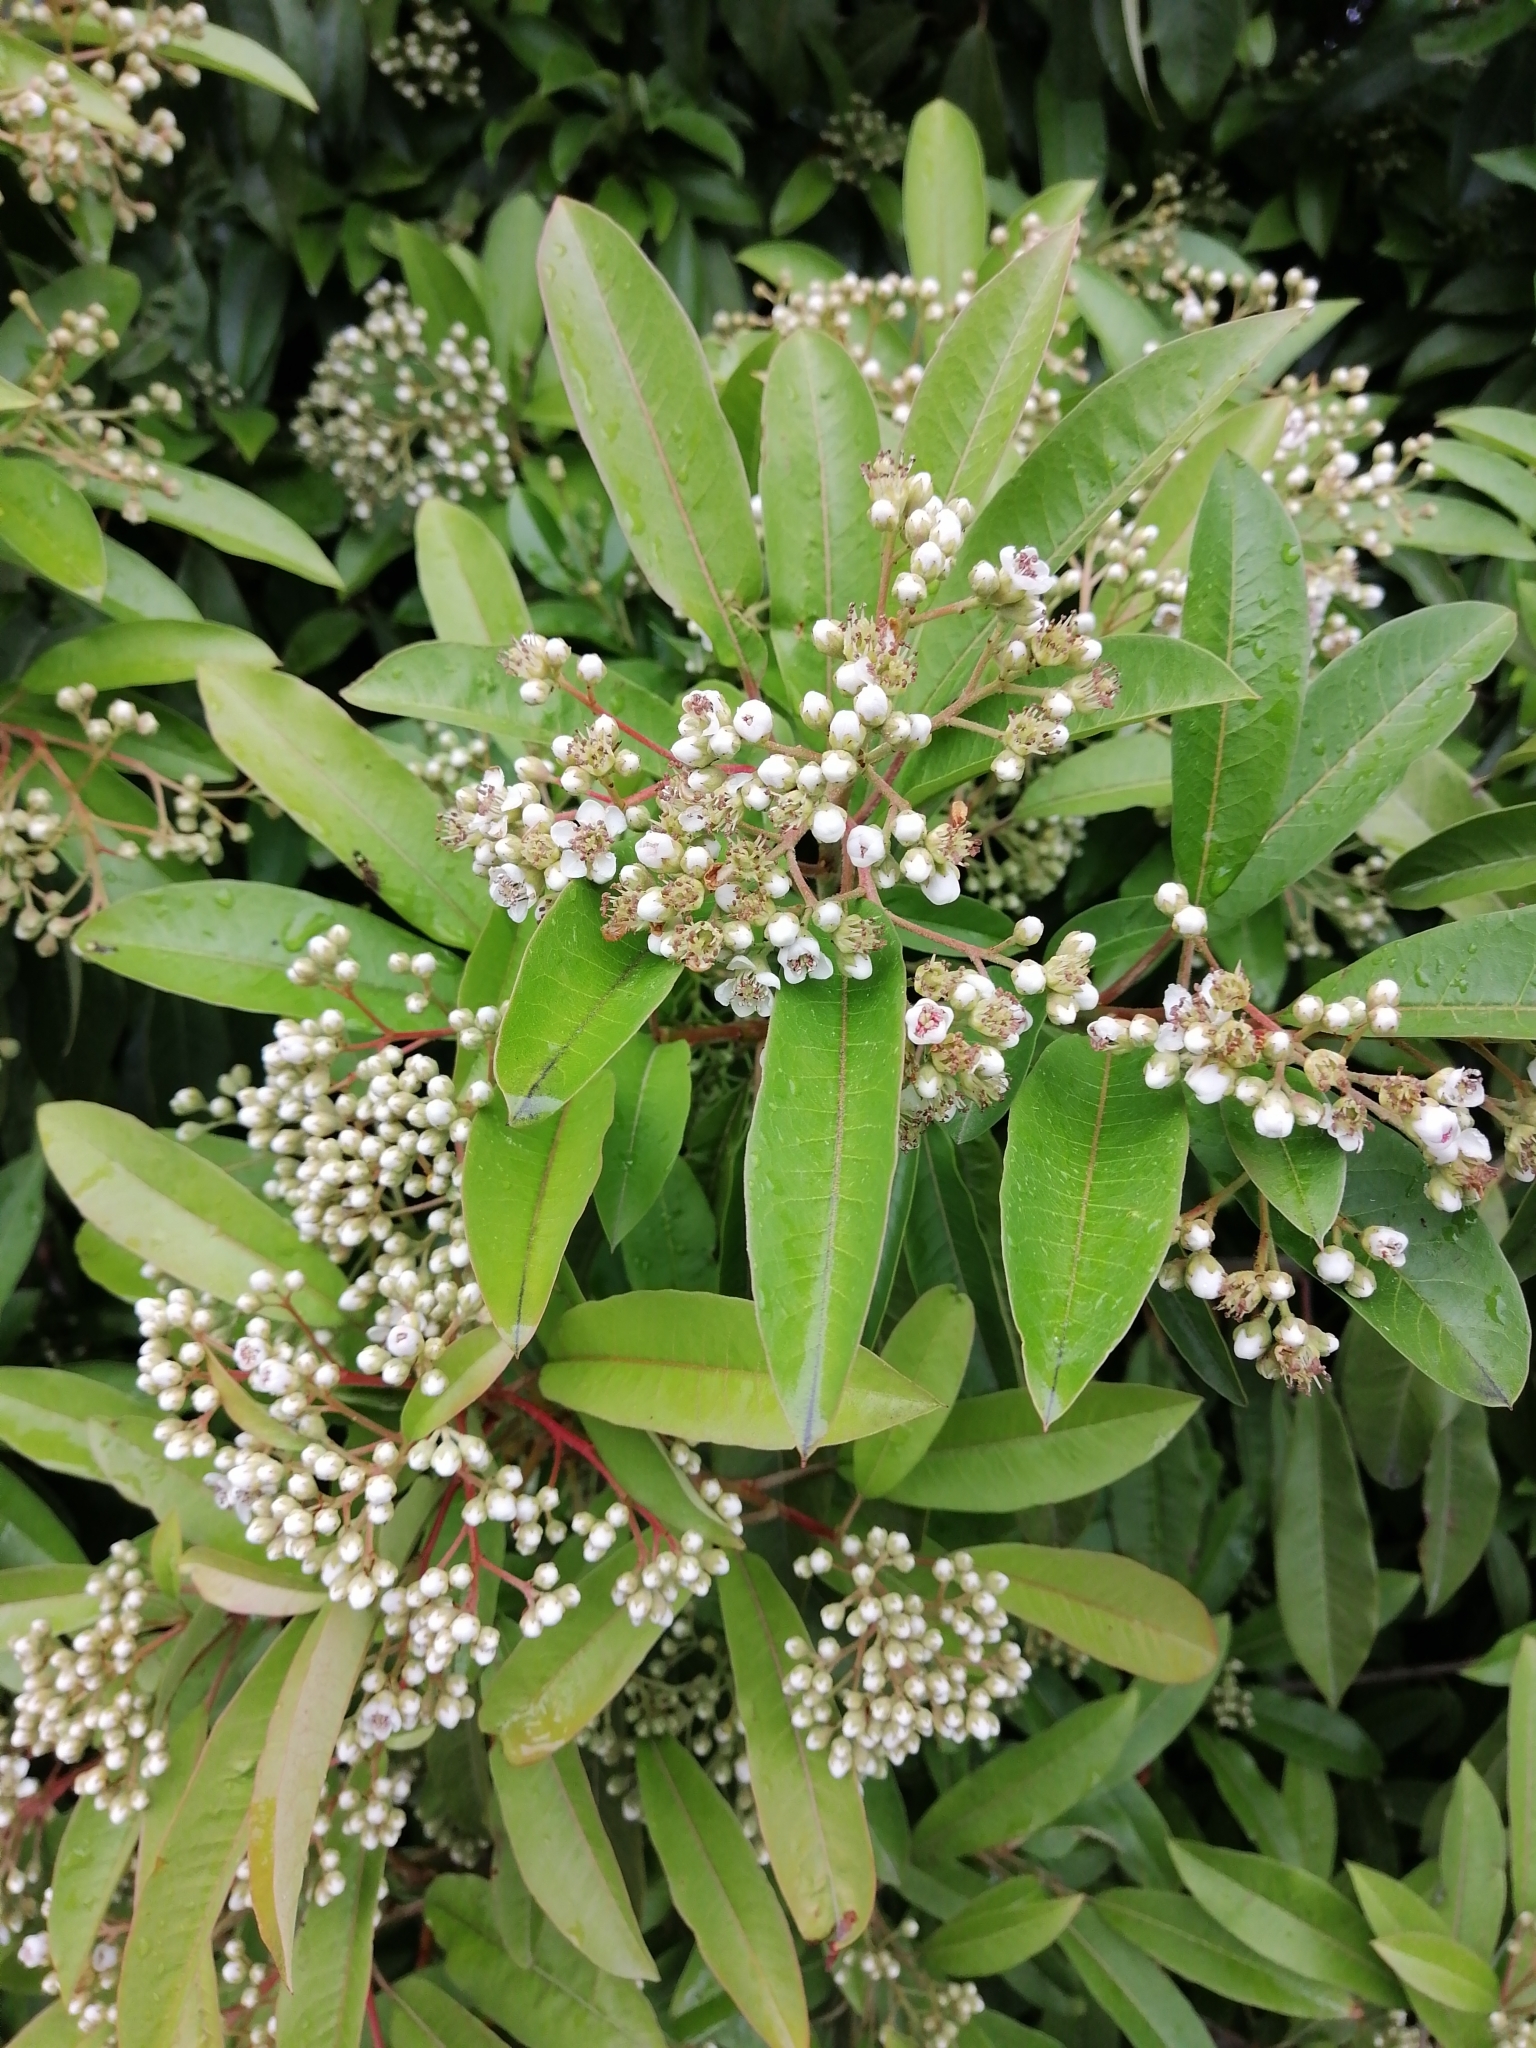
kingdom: Plantae
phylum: Tracheophyta
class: Magnoliopsida
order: Rosales
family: Rosaceae
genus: Stranvaesia
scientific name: Stranvaesia davidiana
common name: Chinese photinia
